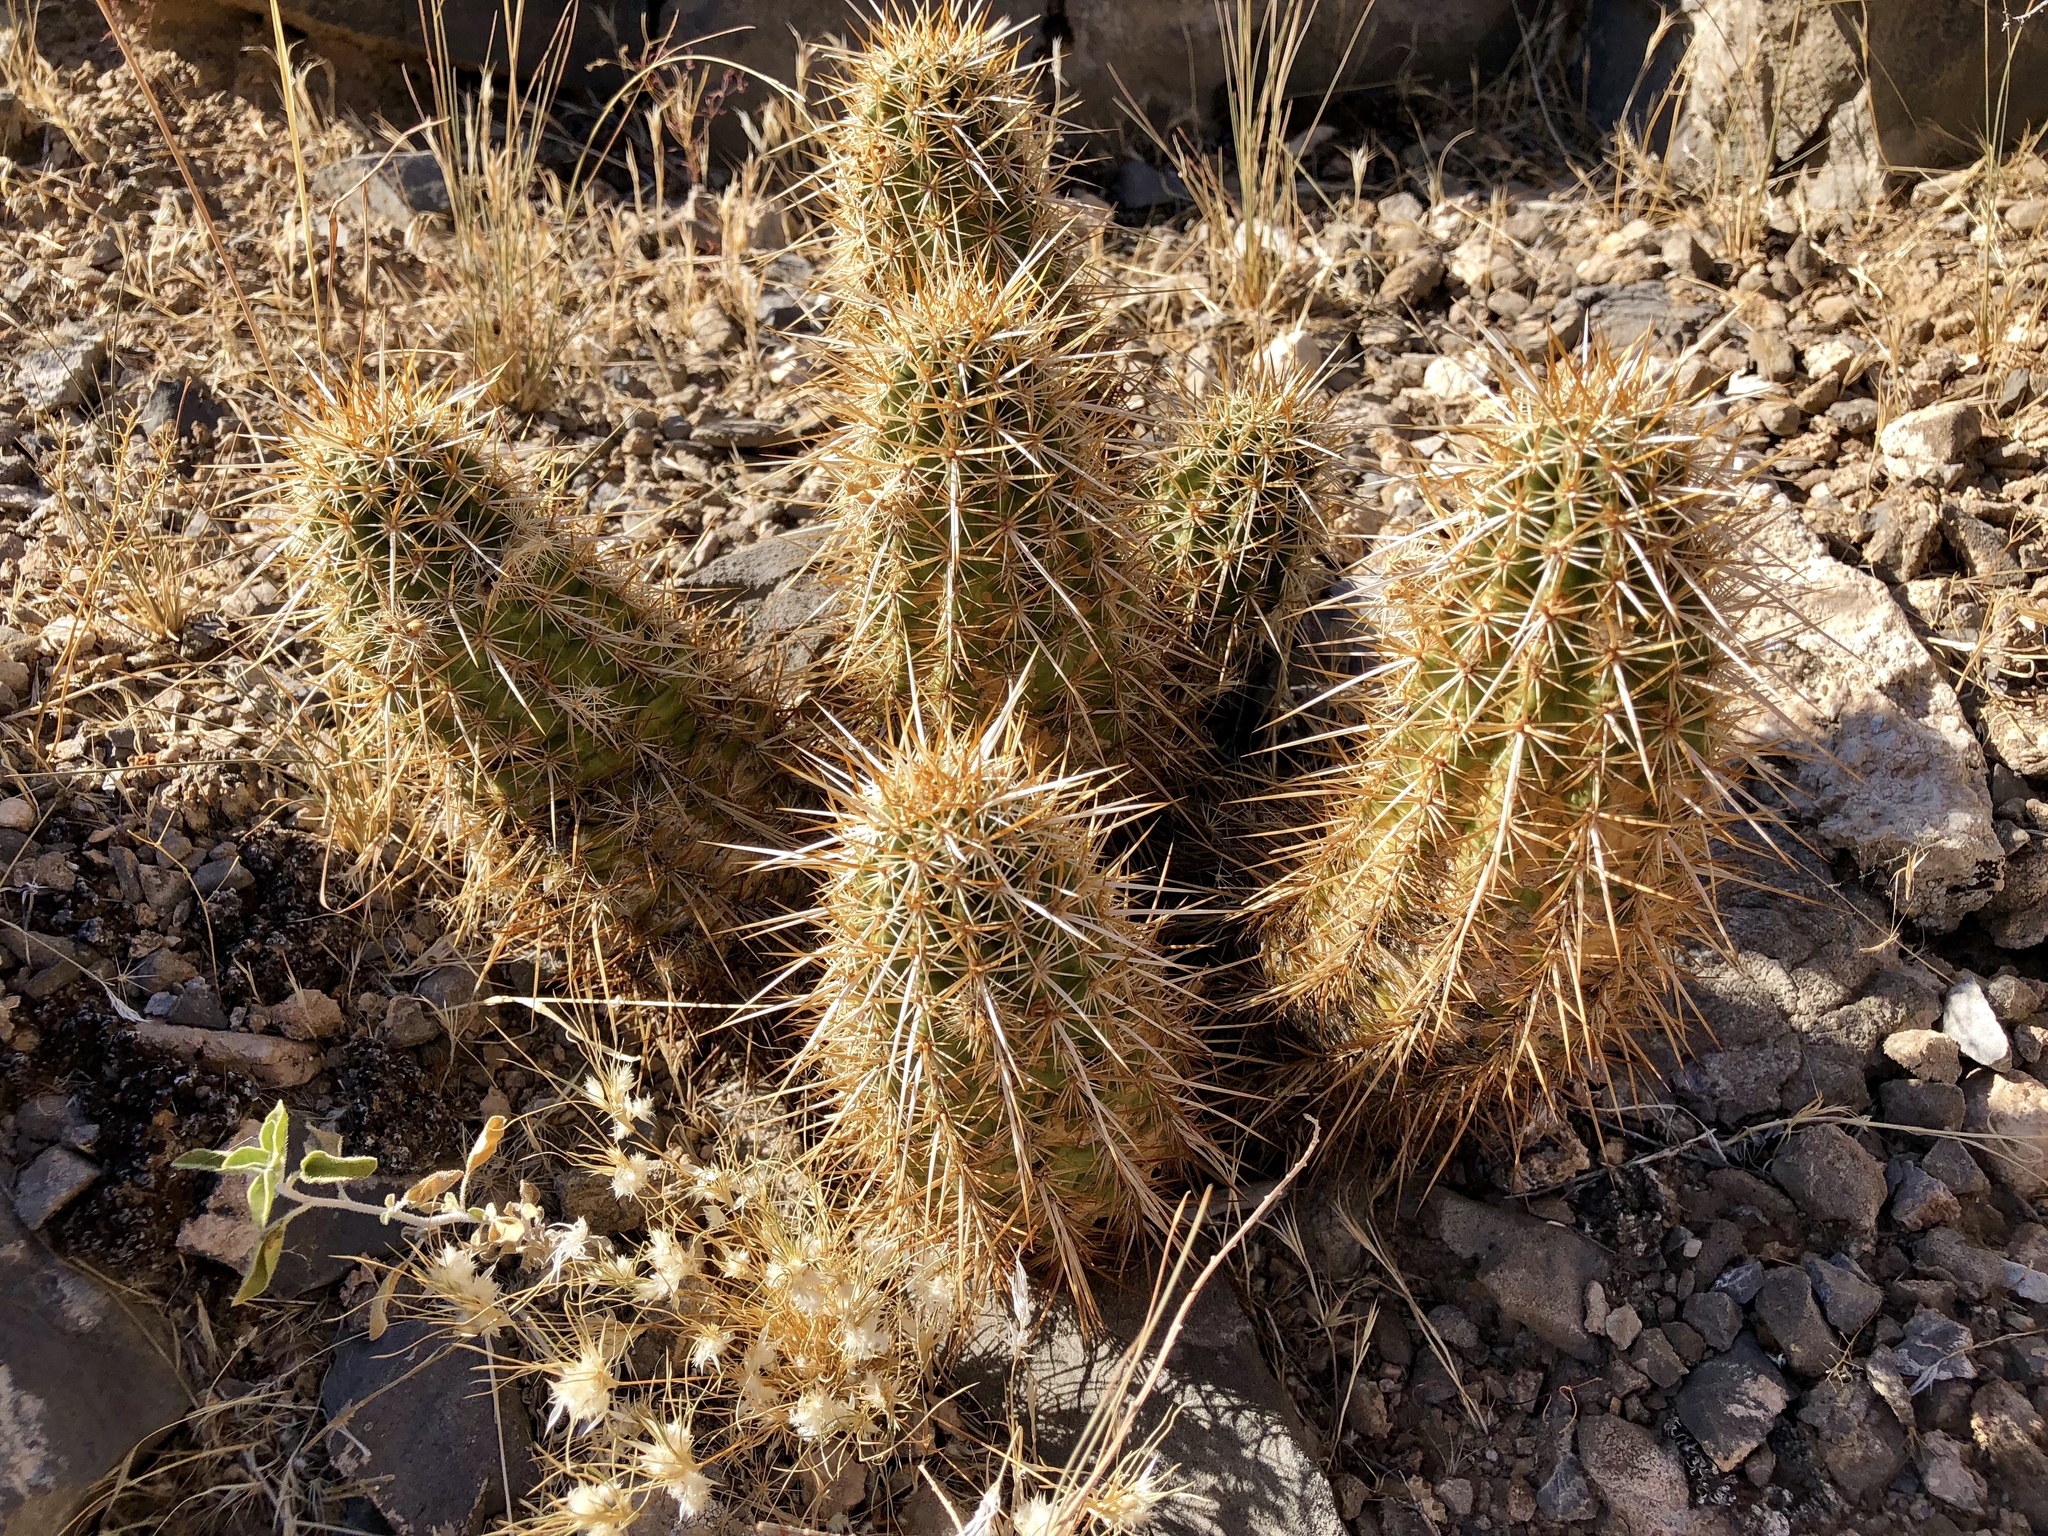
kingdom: Plantae
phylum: Tracheophyta
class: Magnoliopsida
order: Caryophyllales
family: Cactaceae
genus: Echinocereus
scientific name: Echinocereus engelmannii
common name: Engelmann's hedgehog cactus
